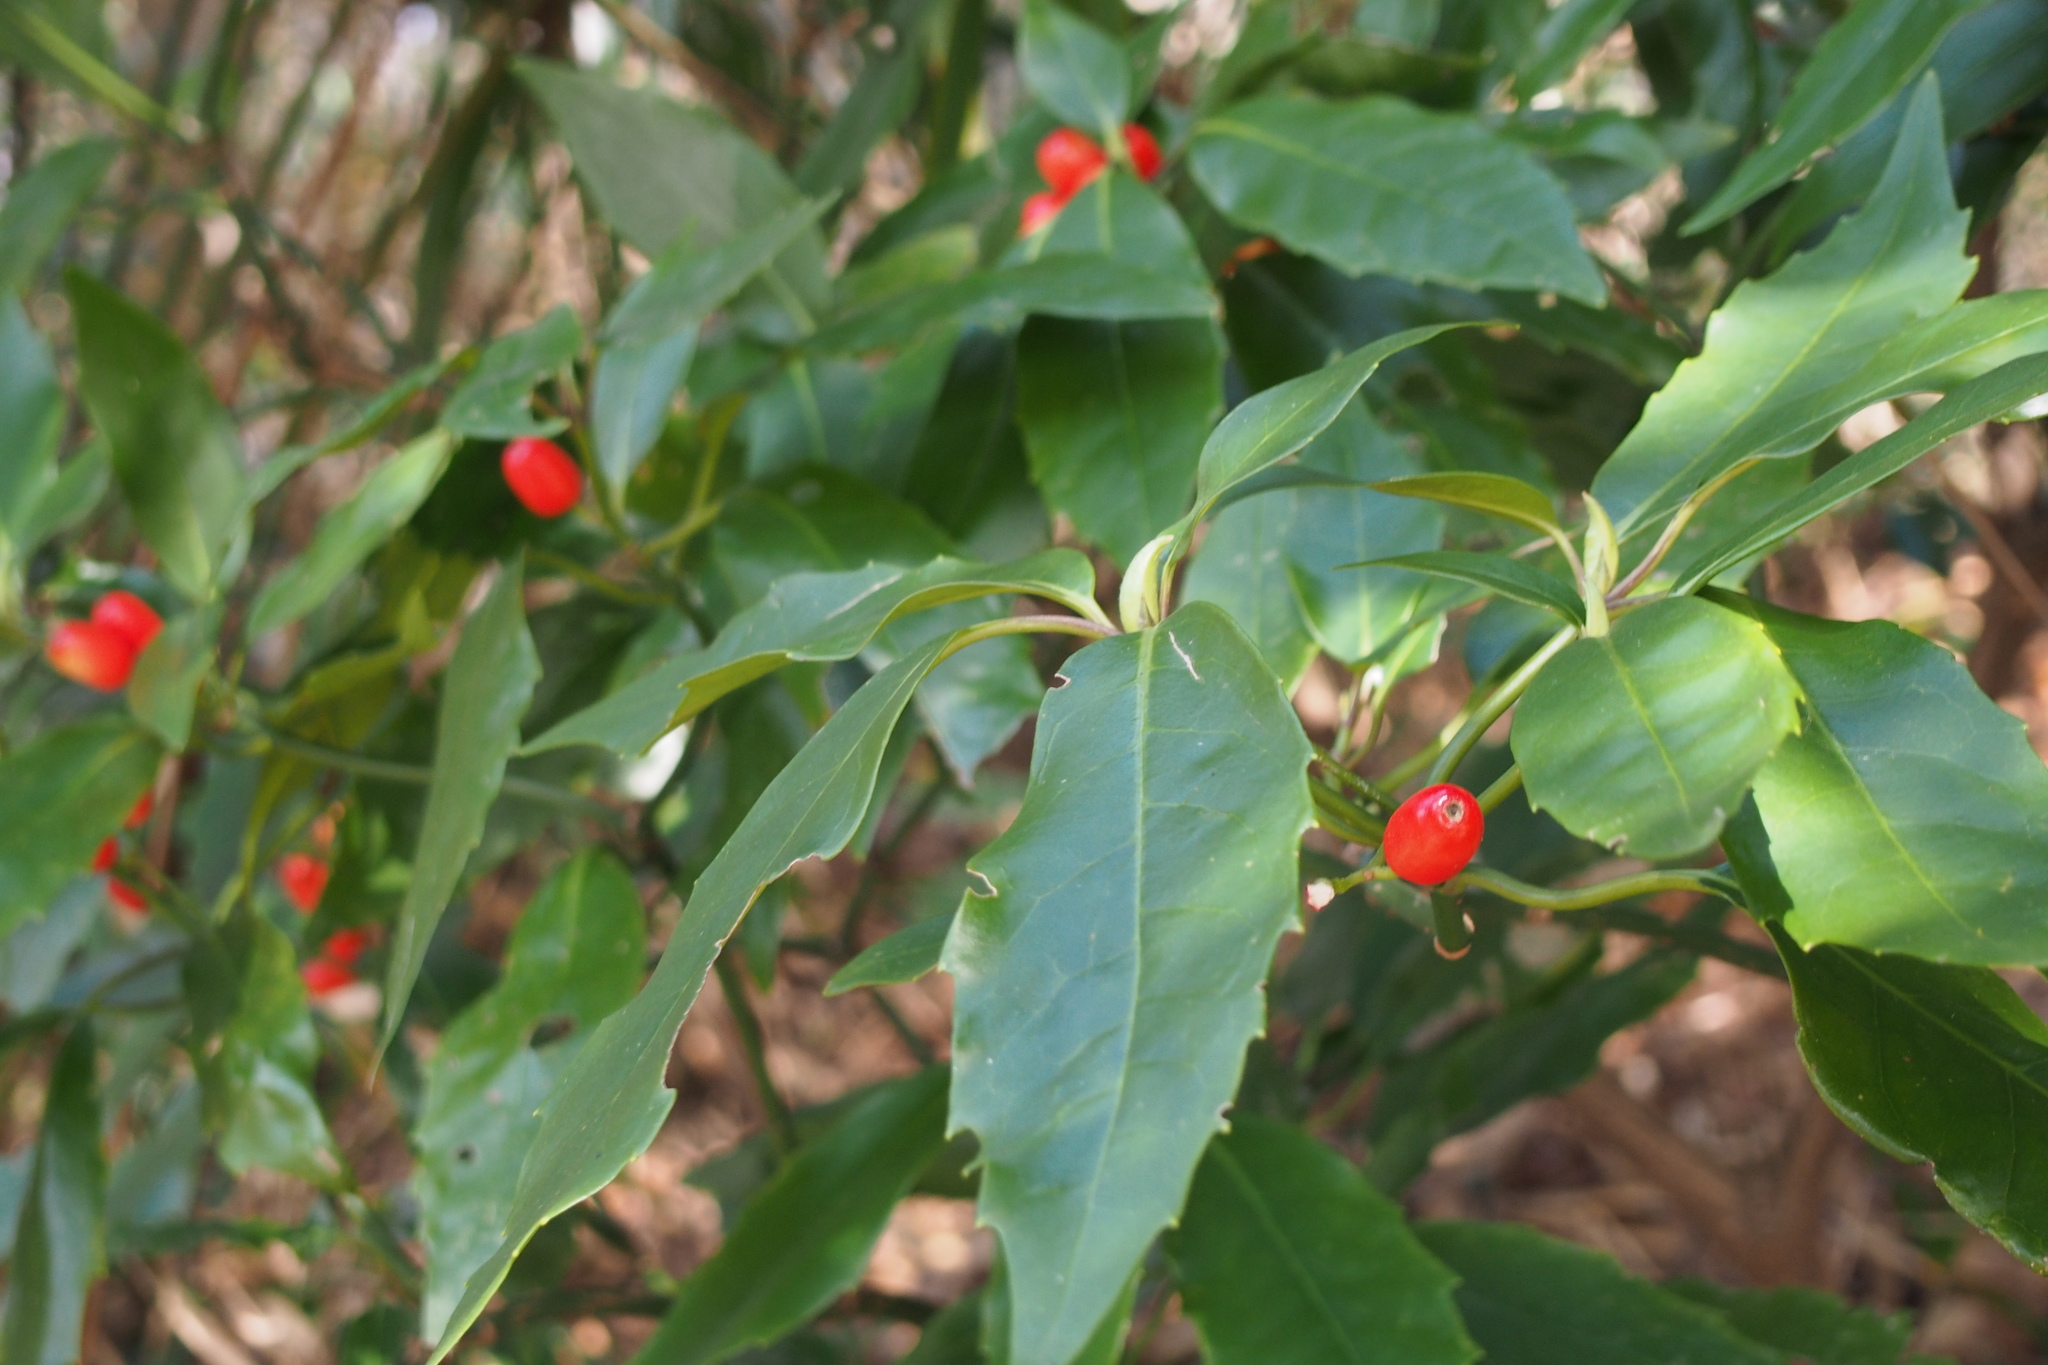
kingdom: Plantae
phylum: Tracheophyta
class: Magnoliopsida
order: Garryales
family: Garryaceae
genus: Aucuba
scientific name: Aucuba japonica
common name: Spotted-laurel
